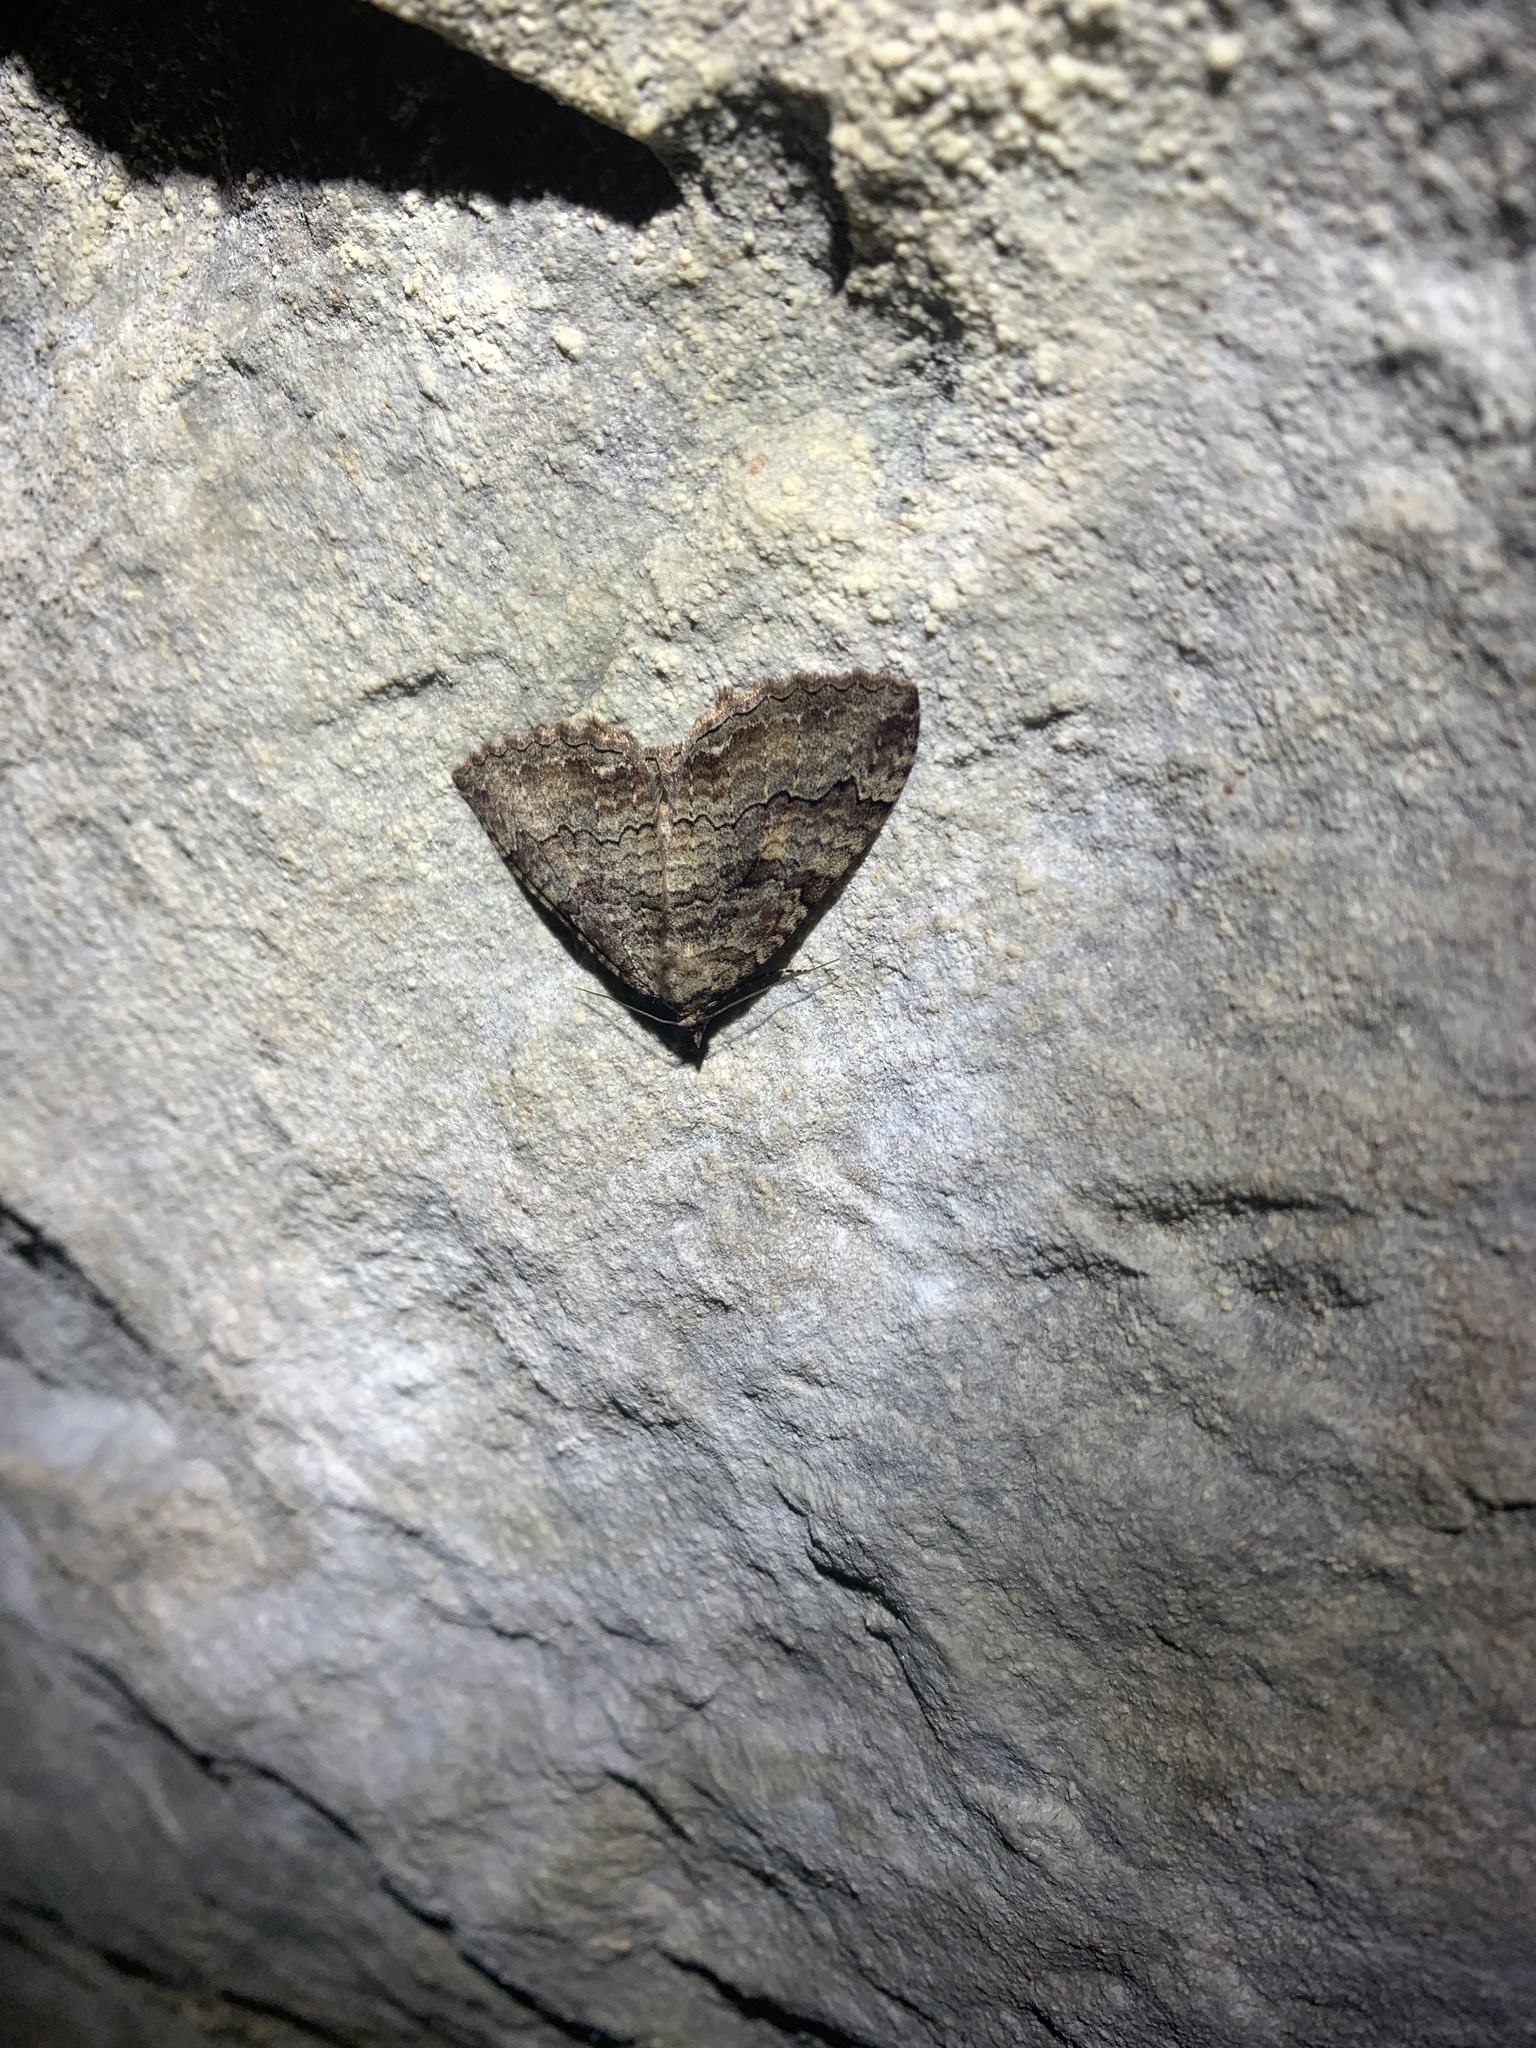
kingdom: Animalia
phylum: Arthropoda
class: Insecta
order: Lepidoptera
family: Geometridae
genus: Triphosa
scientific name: Triphosa haesitata
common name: Tissue moth
